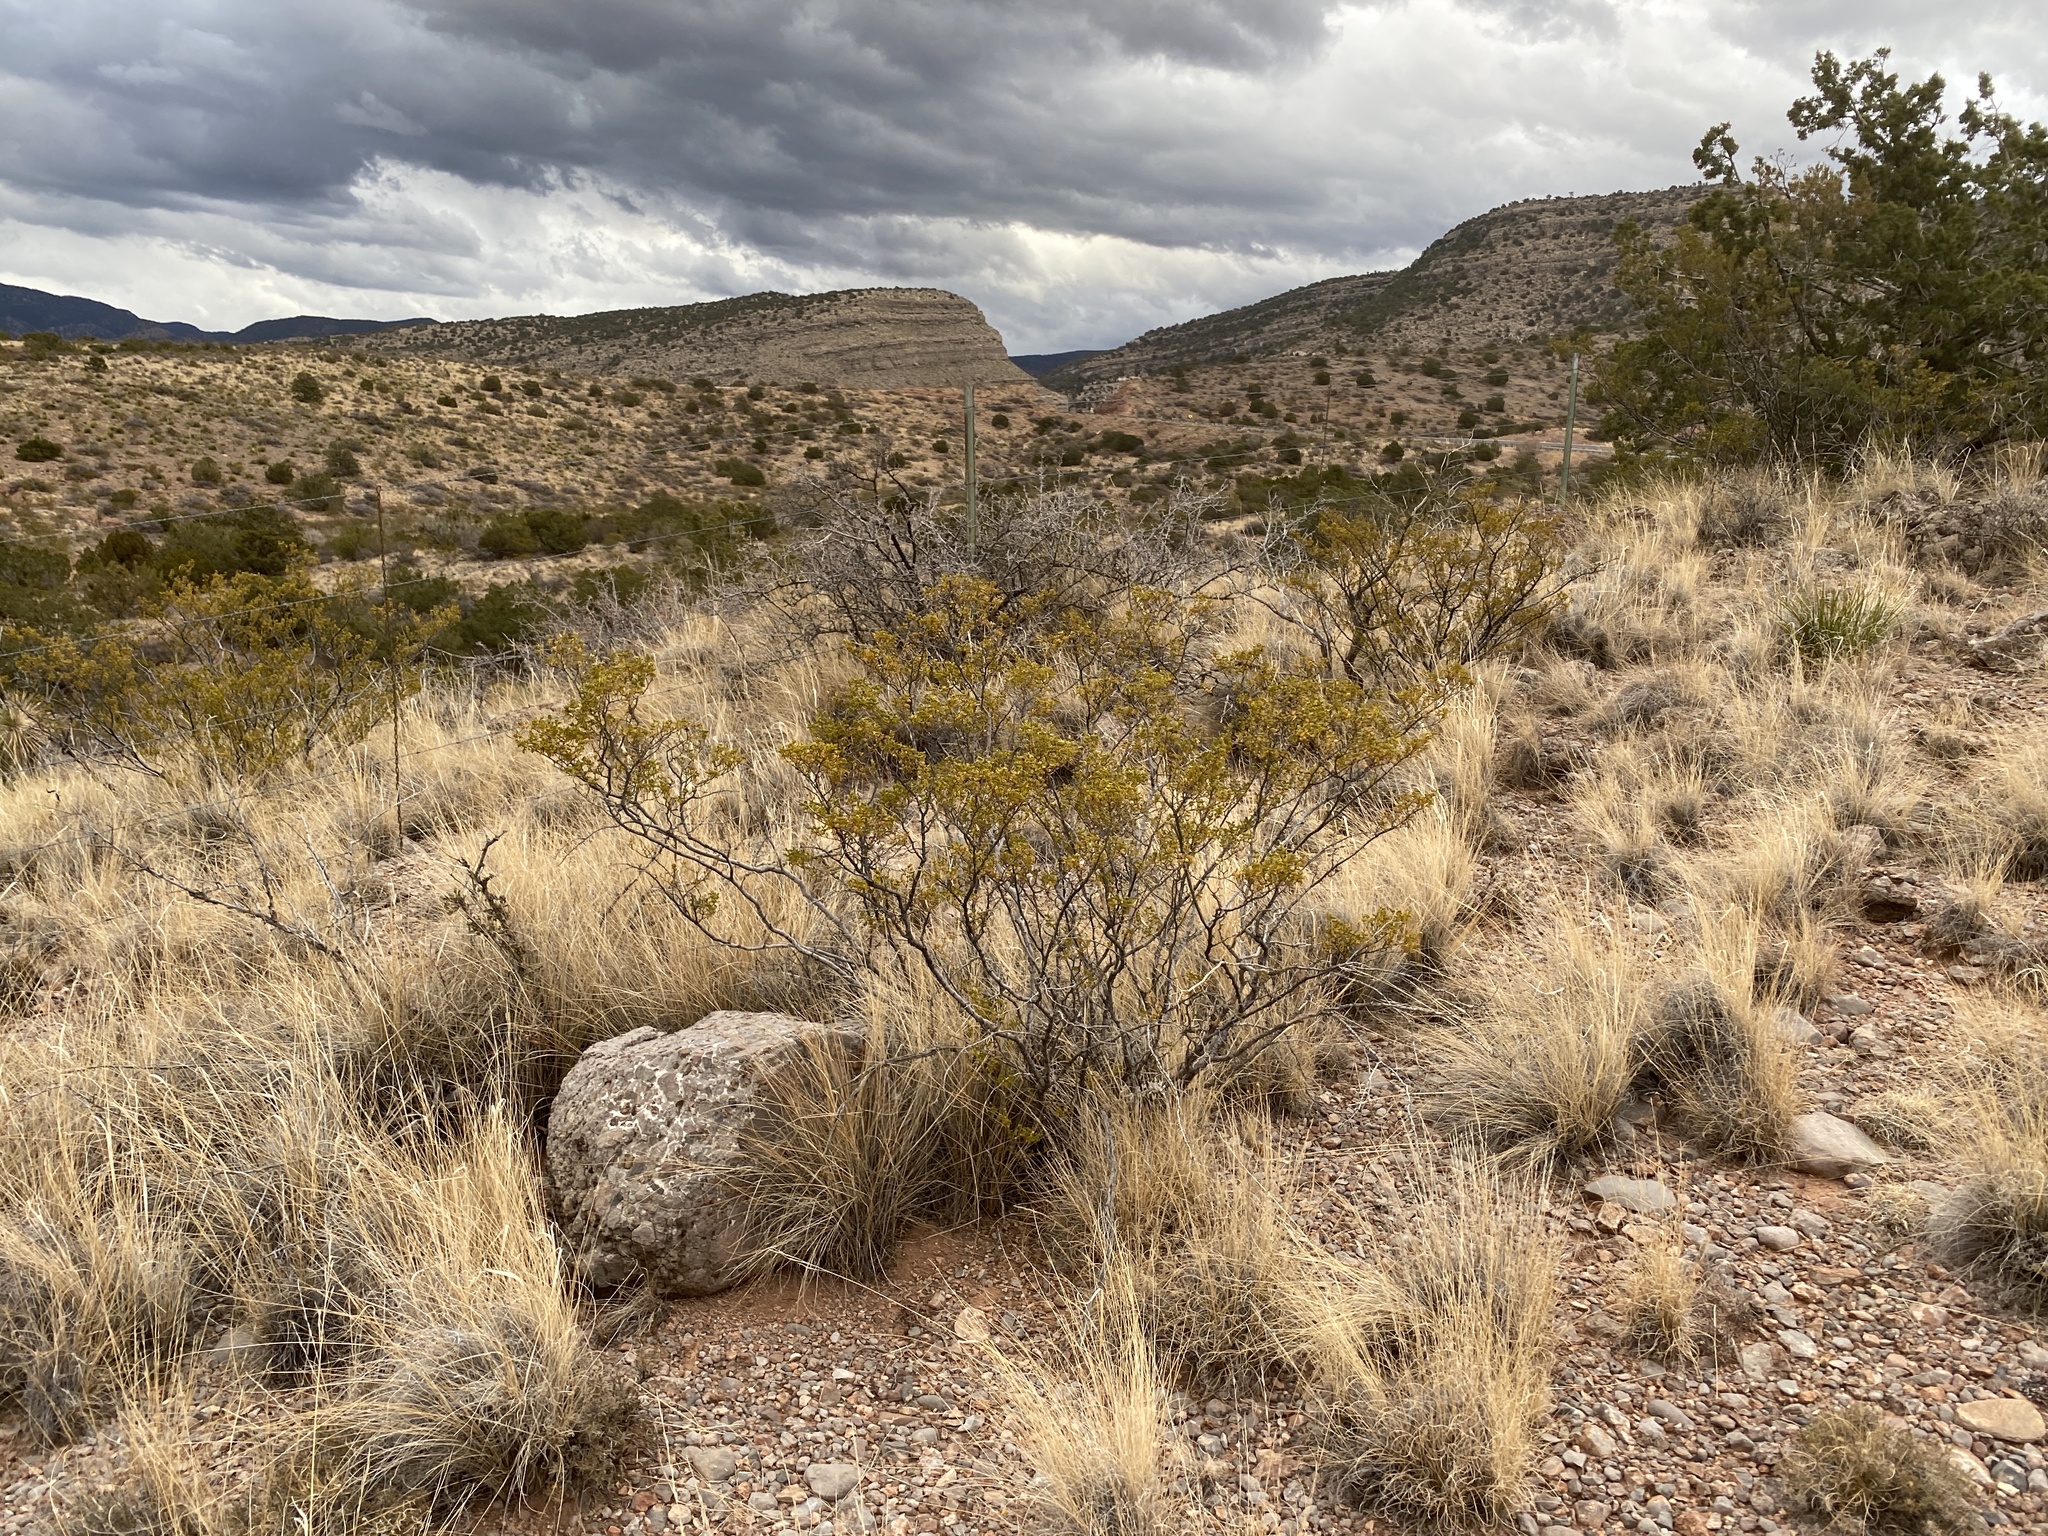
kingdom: Plantae
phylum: Tracheophyta
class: Magnoliopsida
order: Zygophyllales
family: Zygophyllaceae
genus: Larrea
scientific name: Larrea tridentata
